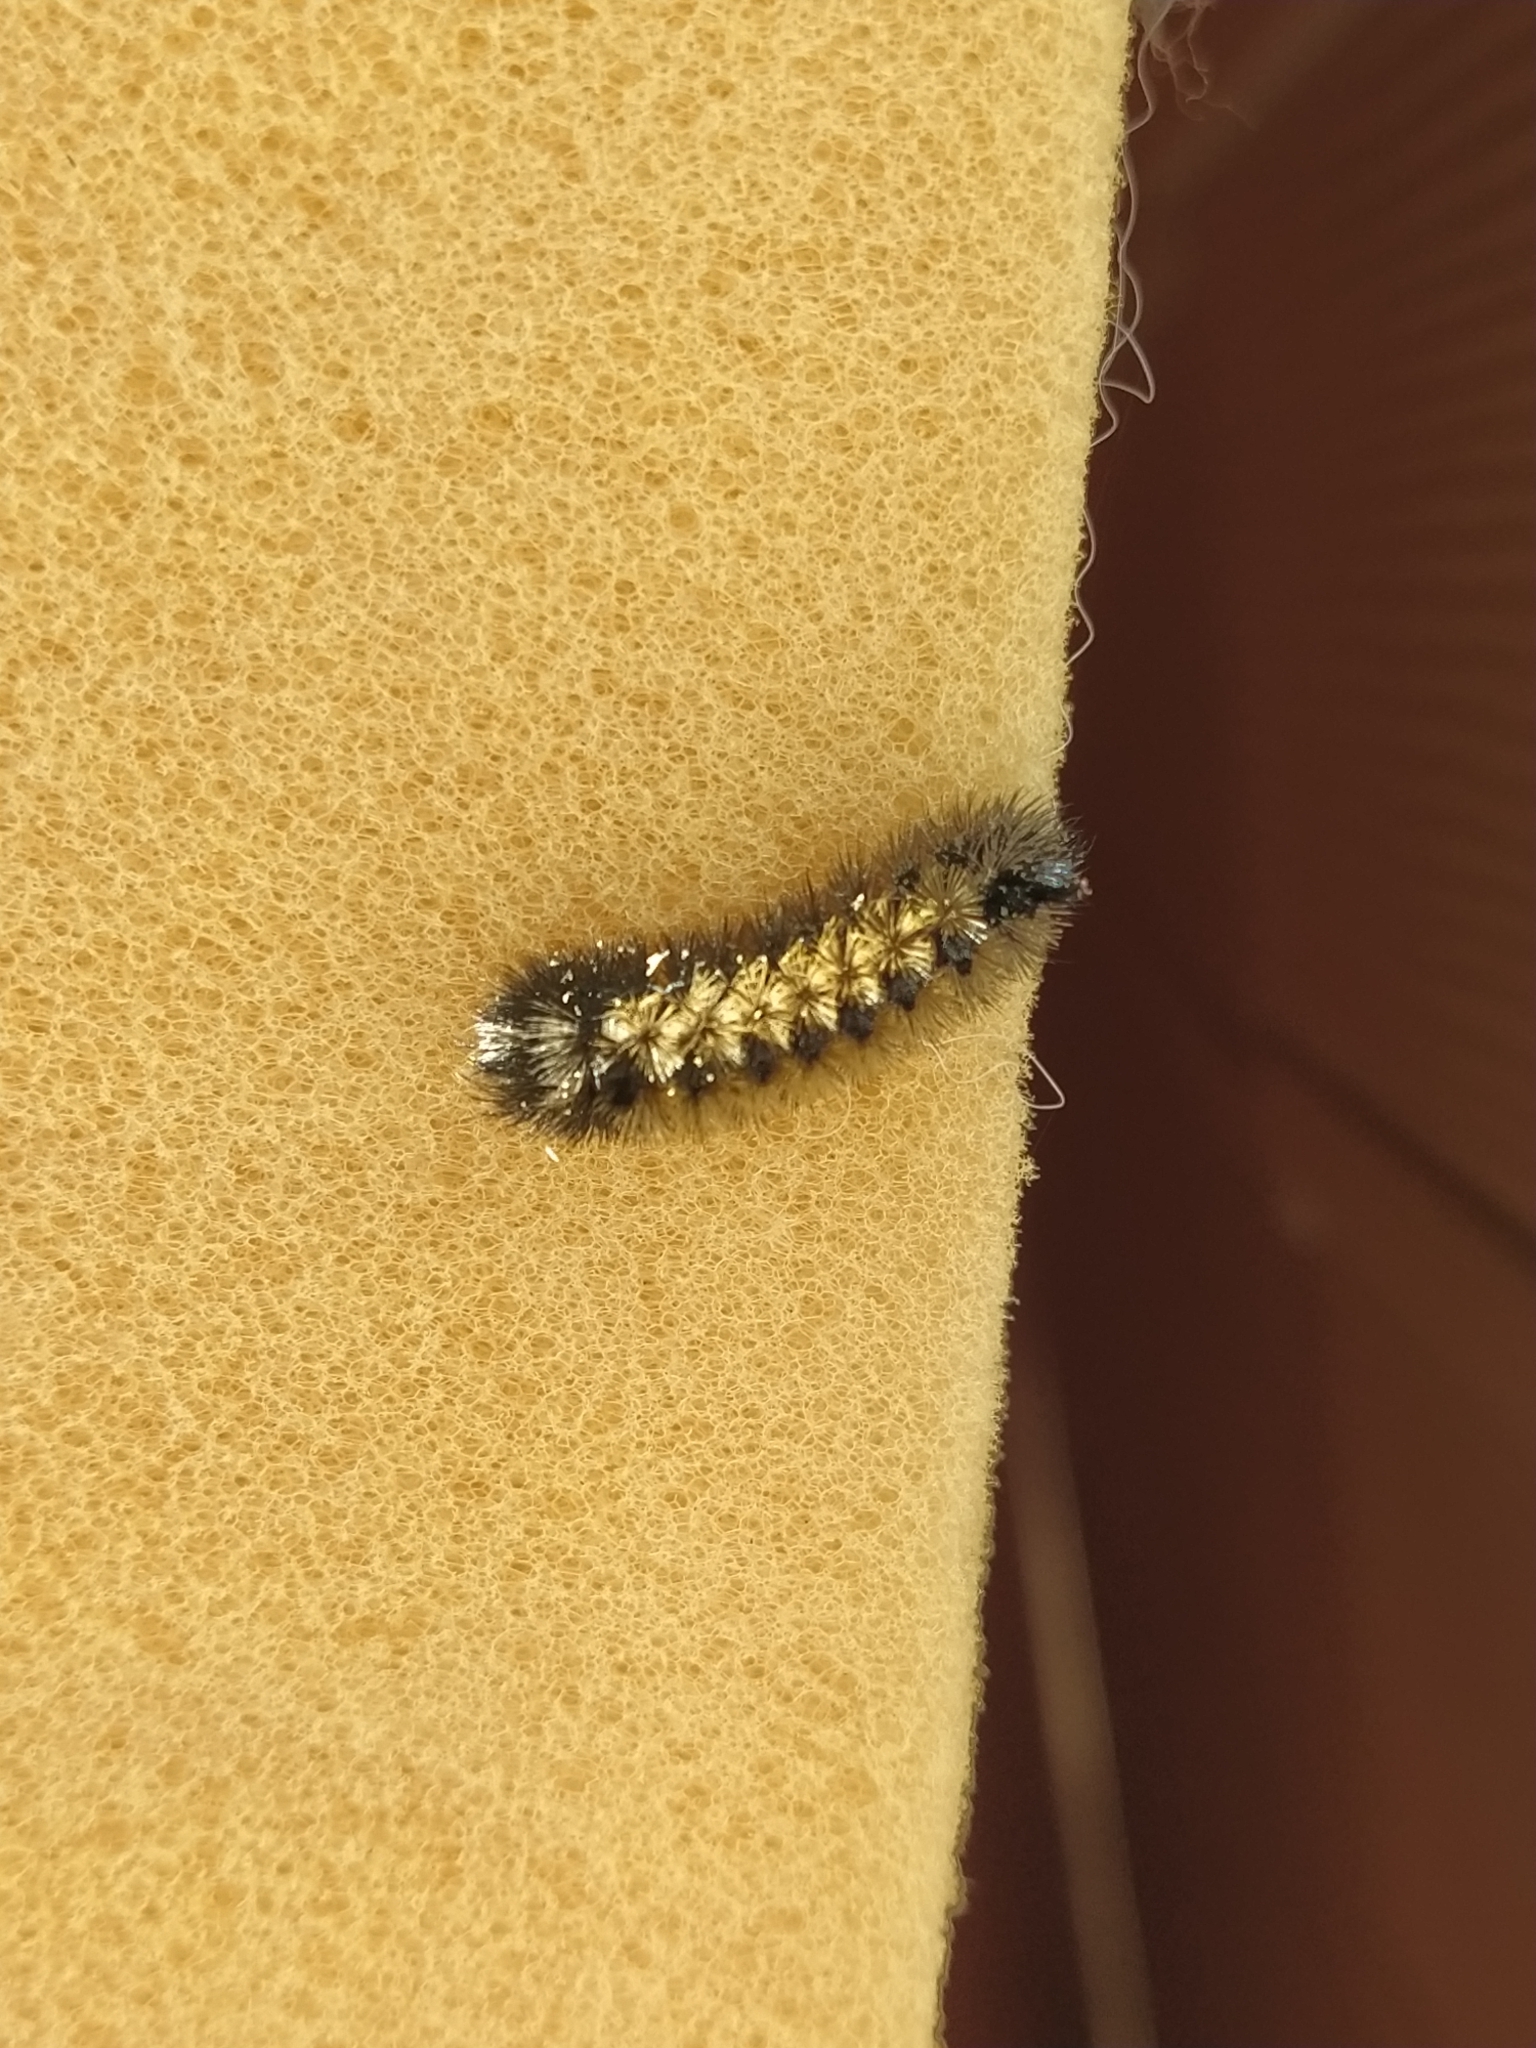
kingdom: Animalia
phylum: Arthropoda
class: Insecta
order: Lepidoptera
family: Erebidae
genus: Ctenucha
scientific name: Ctenucha virginica
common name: Virginia ctenucha moth
